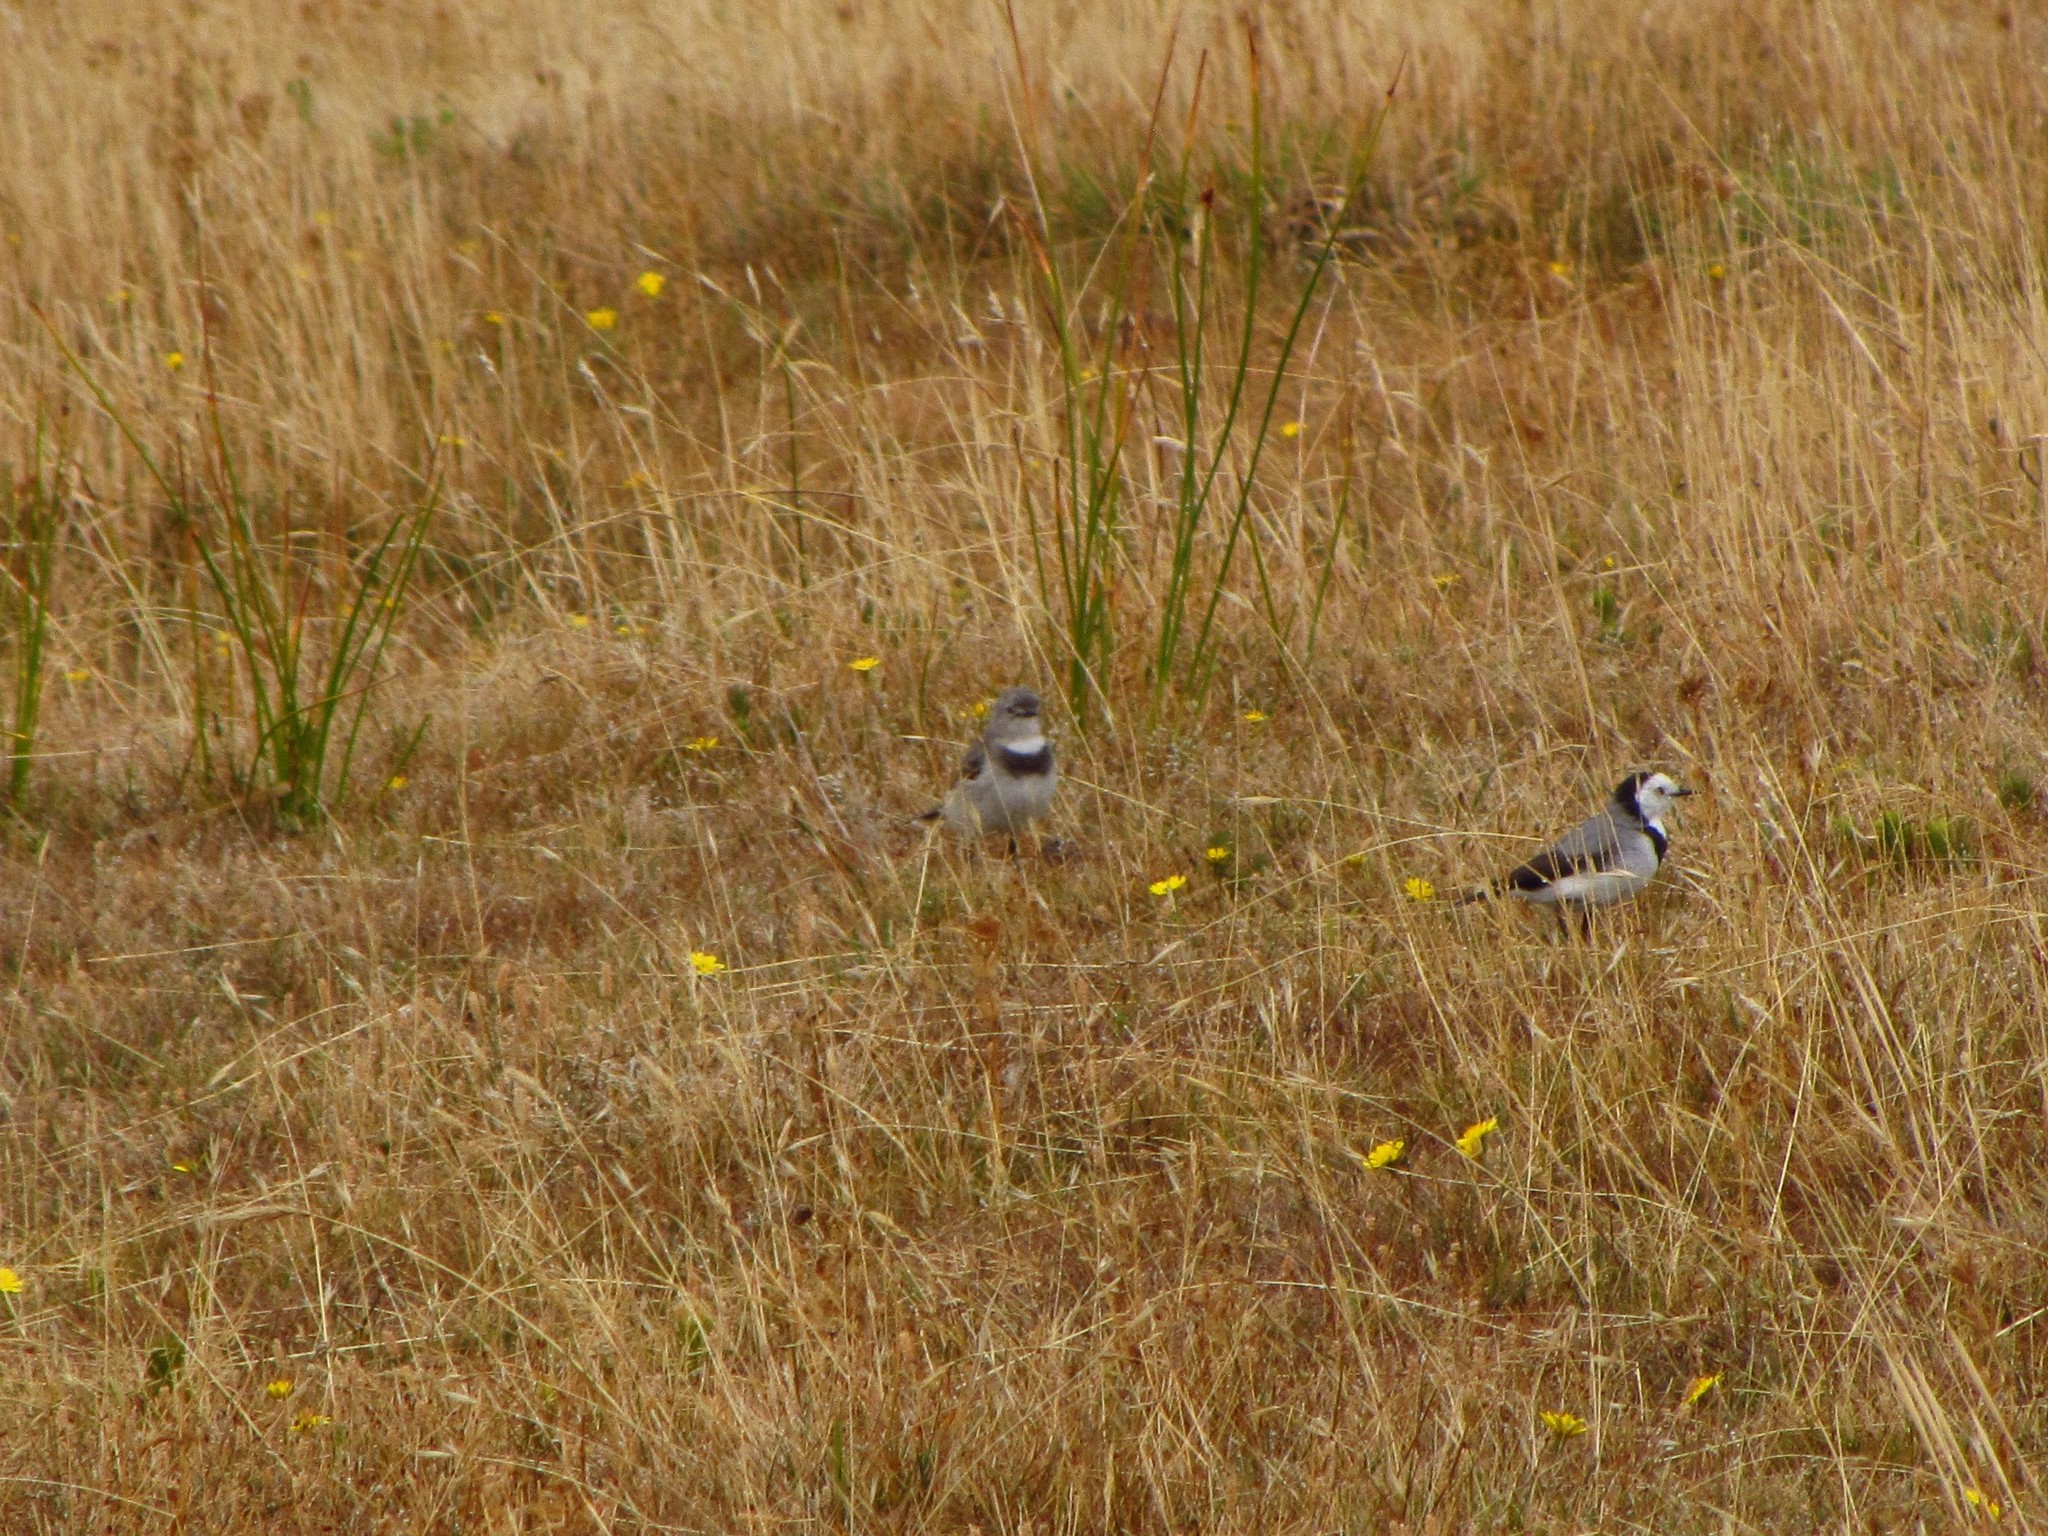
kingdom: Animalia
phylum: Chordata
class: Aves
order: Passeriformes
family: Meliphagidae
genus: Epthianura
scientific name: Epthianura albifrons
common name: White-fronted chat
